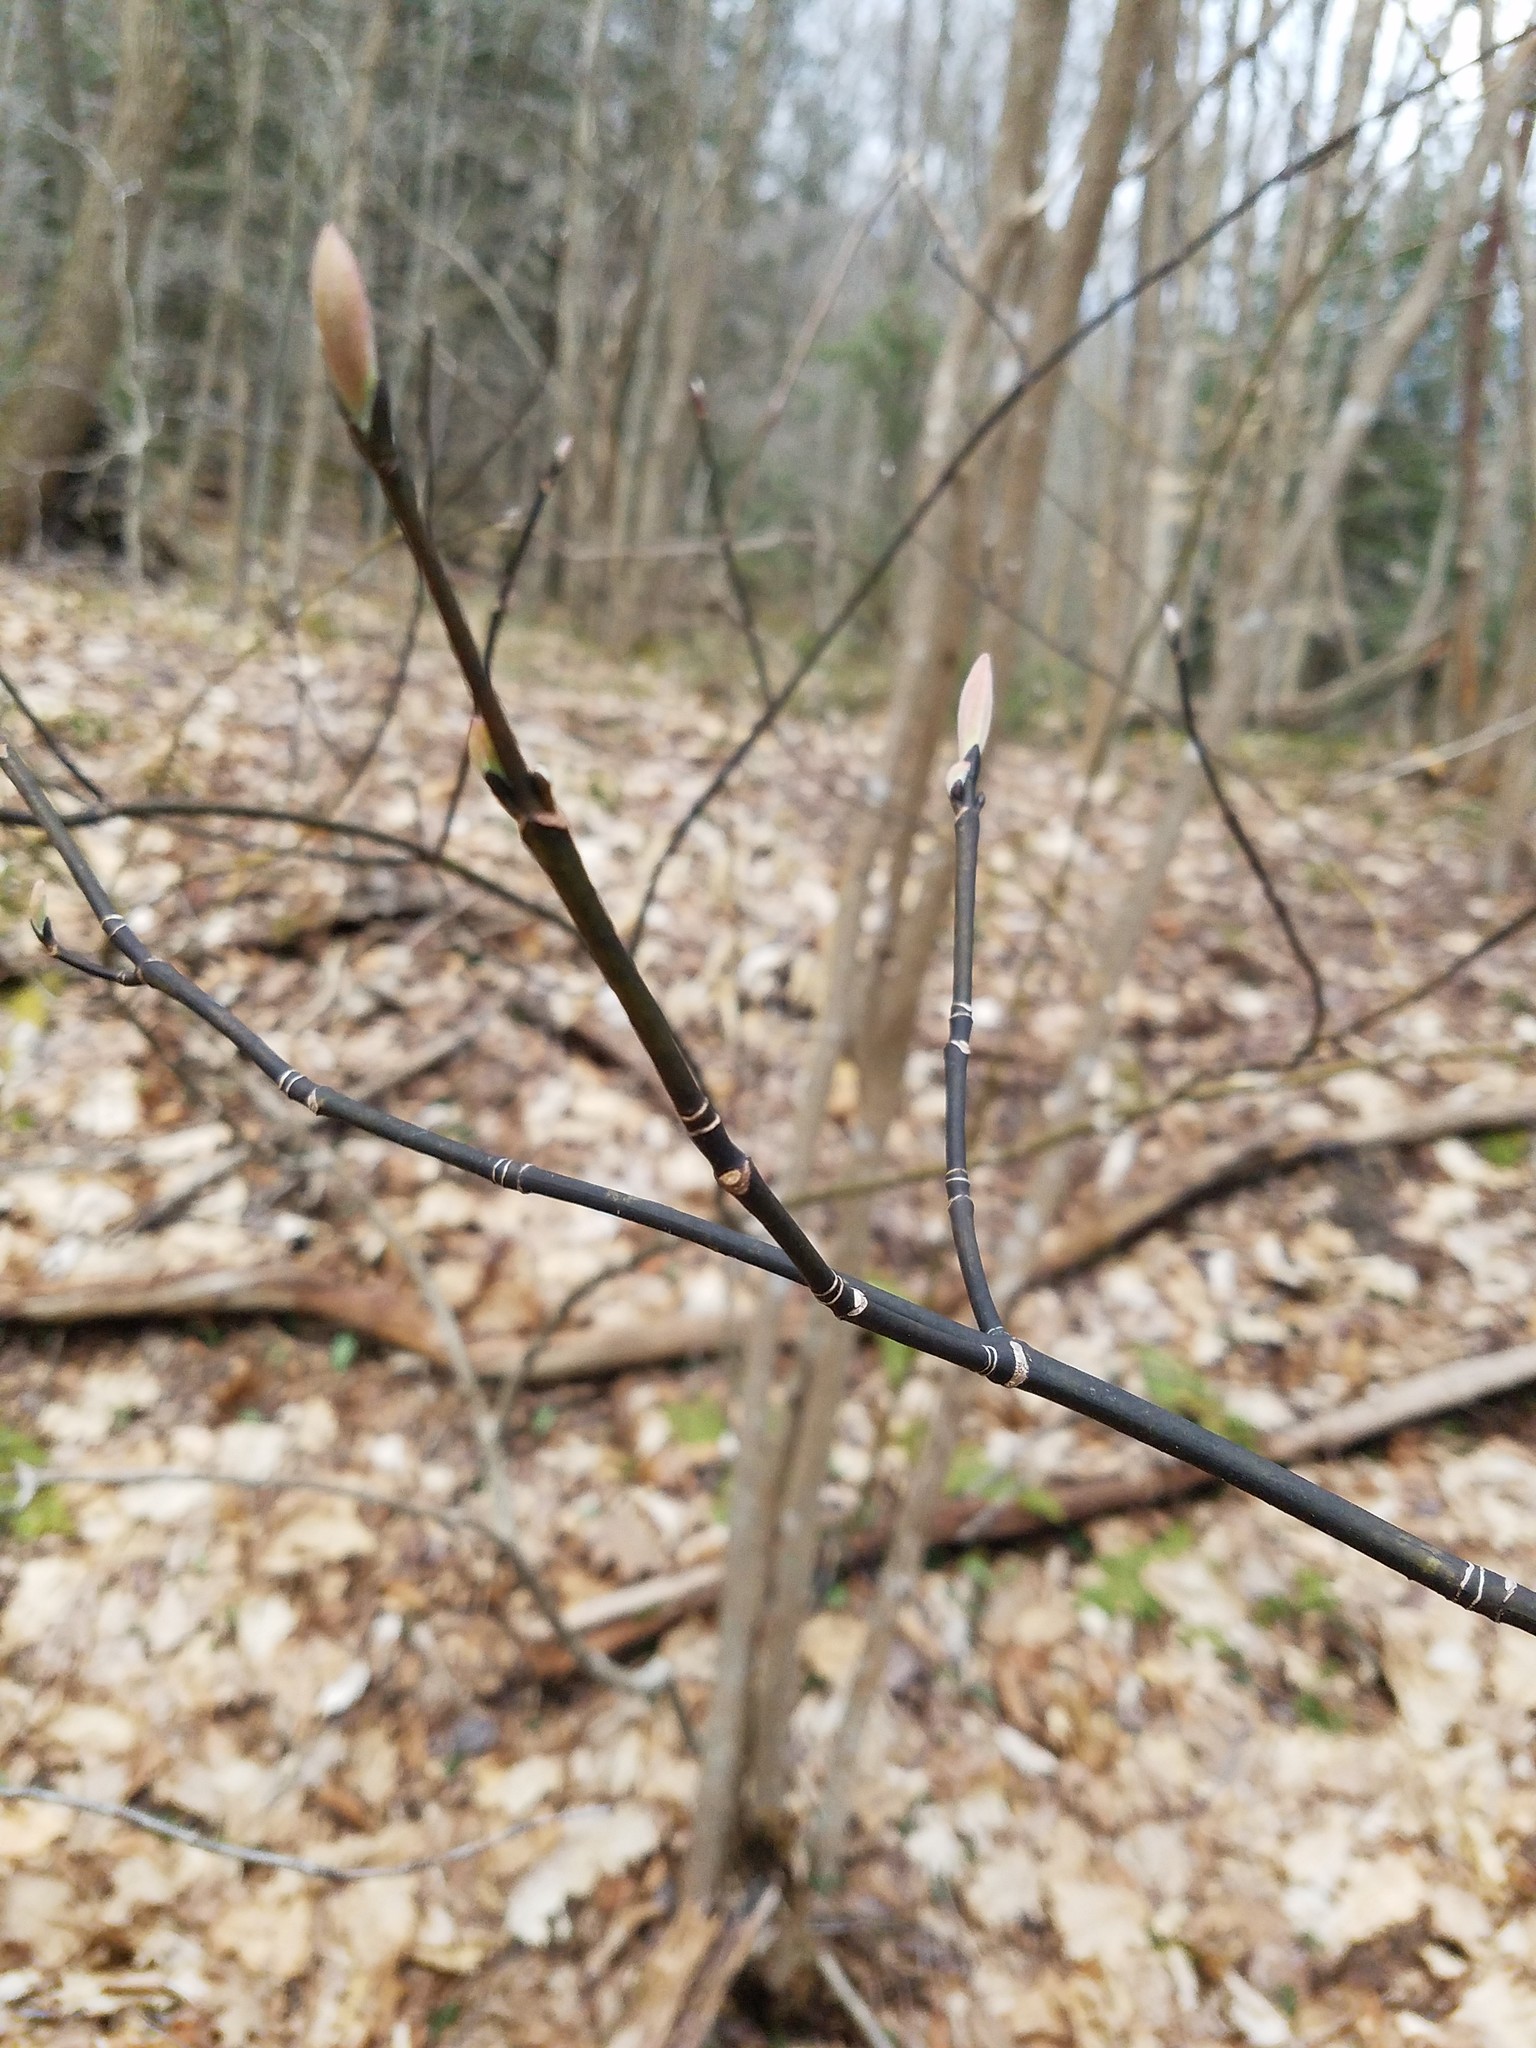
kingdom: Plantae
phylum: Tracheophyta
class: Magnoliopsida
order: Sapindales
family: Sapindaceae
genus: Acer
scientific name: Acer pensylvanicum
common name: Moosewood
